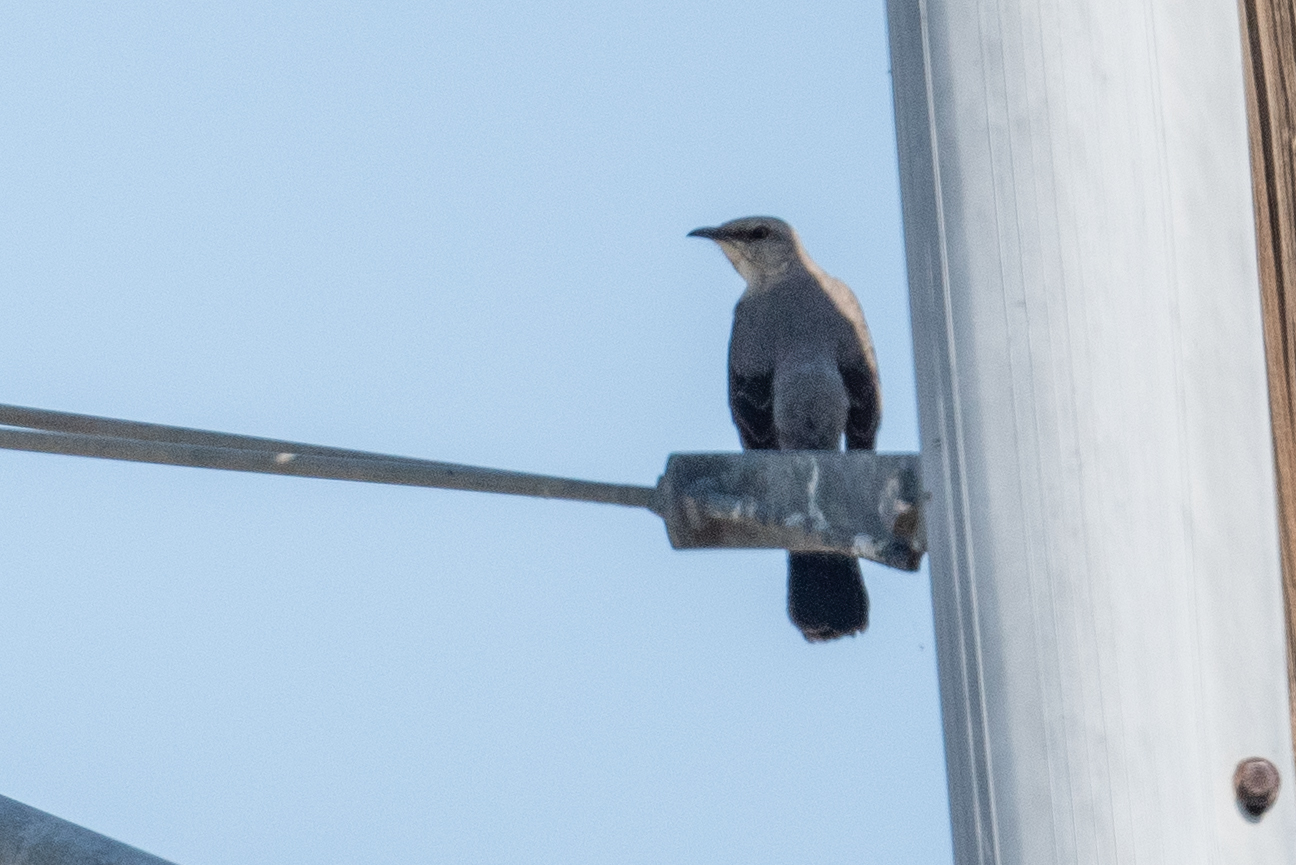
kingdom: Animalia
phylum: Chordata
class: Aves
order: Passeriformes
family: Mimidae
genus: Mimus
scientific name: Mimus polyglottos
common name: Northern mockingbird
